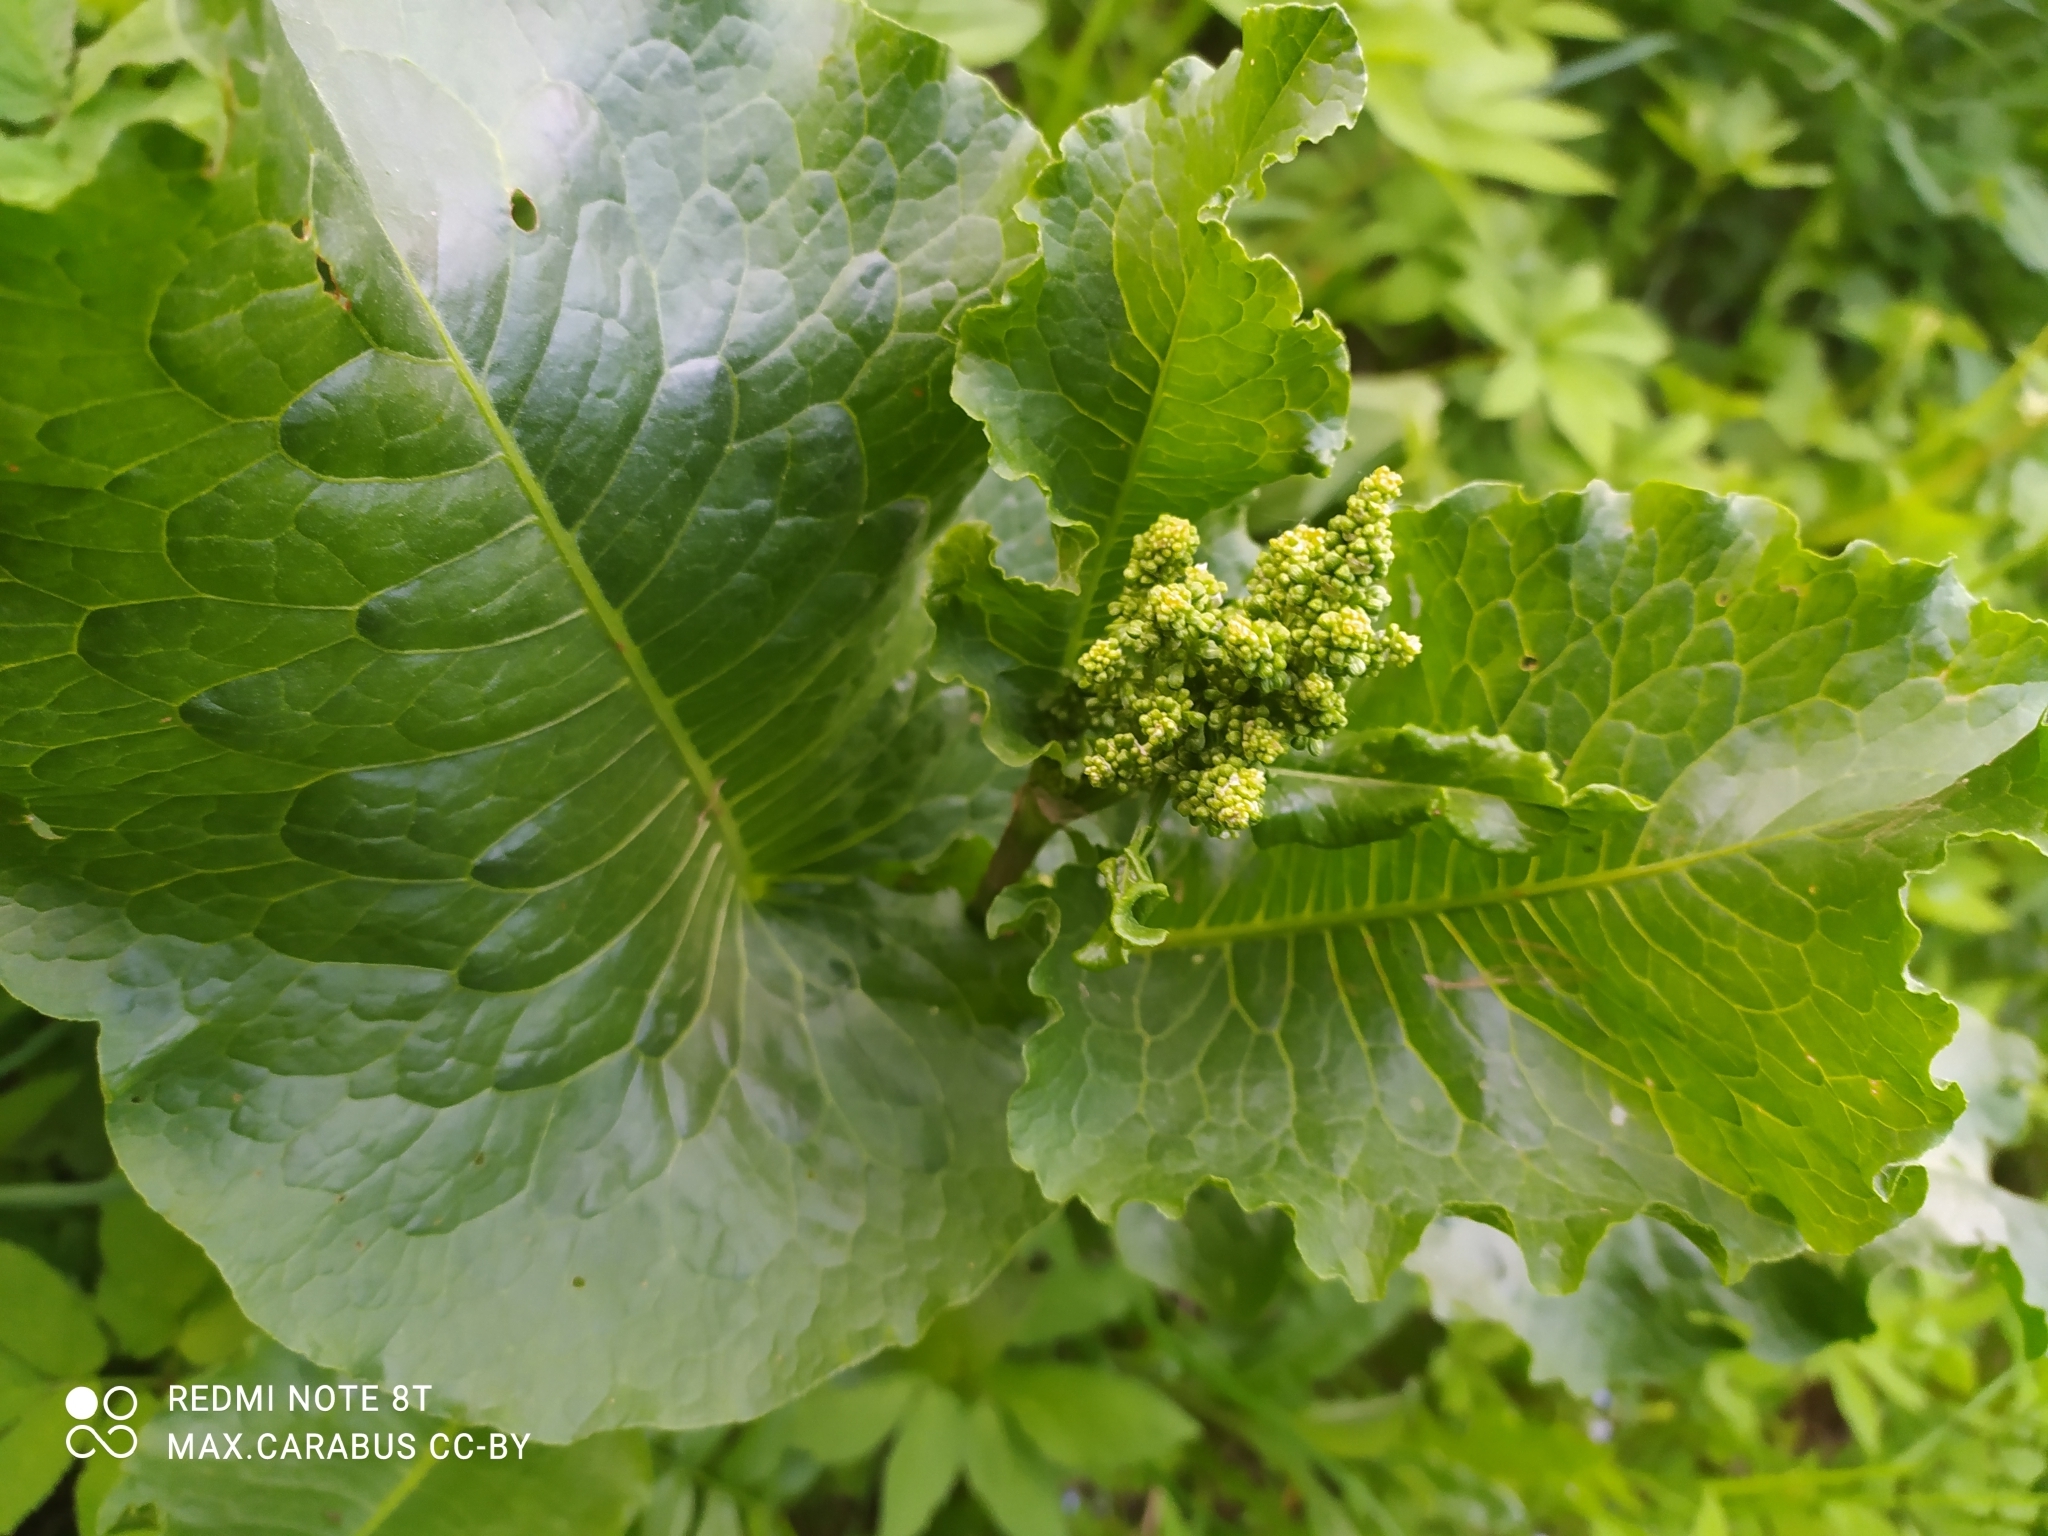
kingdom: Plantae
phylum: Tracheophyta
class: Magnoliopsida
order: Caryophyllales
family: Polygonaceae
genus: Rumex
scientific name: Rumex confertus
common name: Russian dock
